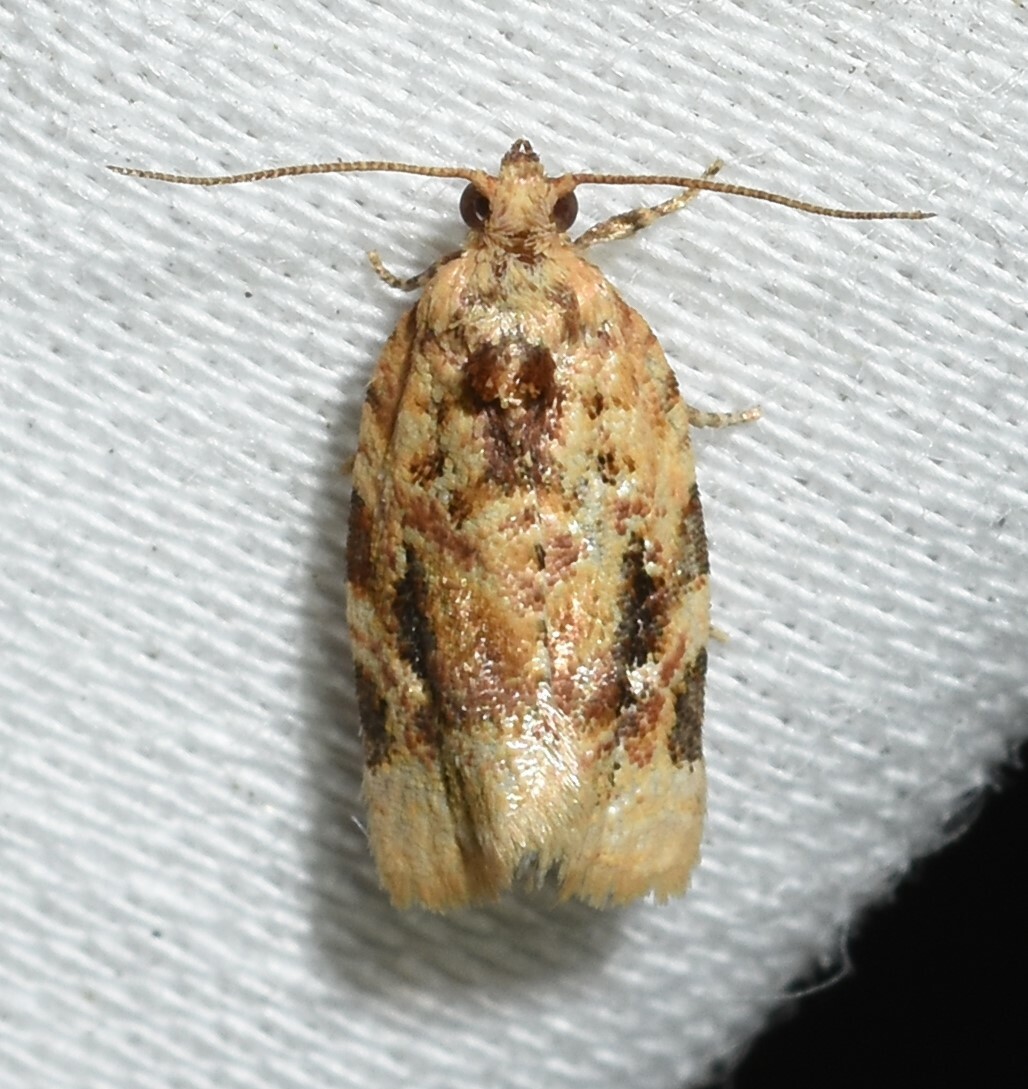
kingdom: Animalia
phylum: Arthropoda
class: Insecta
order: Lepidoptera
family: Tortricidae
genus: Argyrotaenia
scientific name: Argyrotaenia velutinana
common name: Red-banded leafroller moth
